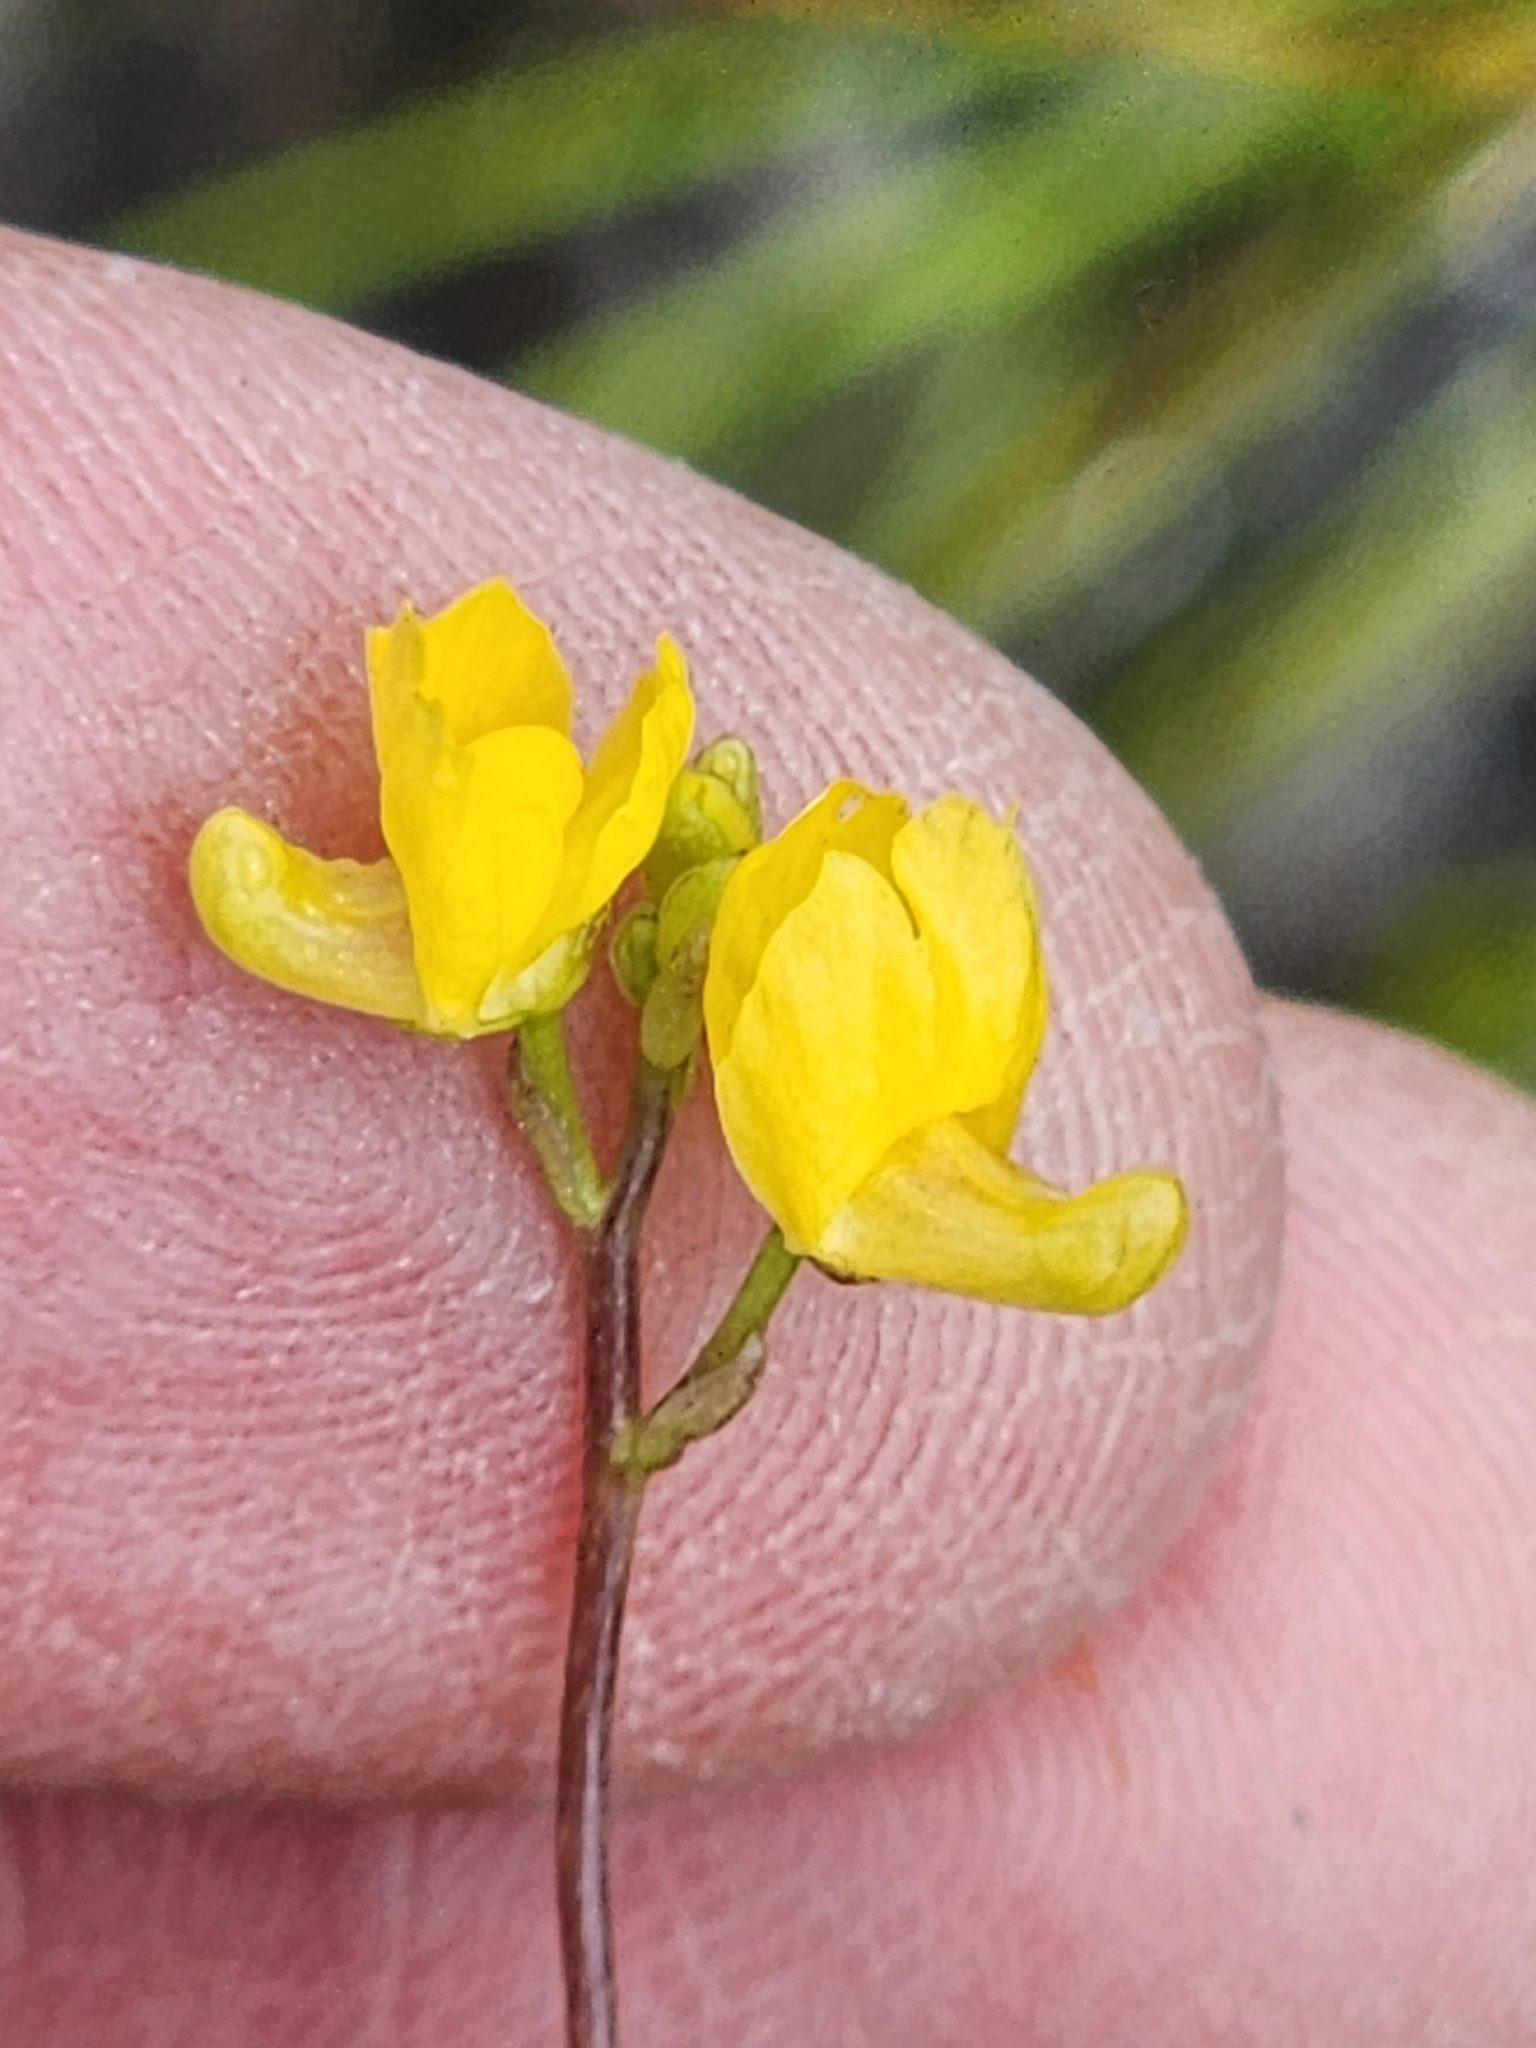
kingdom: Plantae
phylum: Tracheophyta
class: Magnoliopsida
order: Lamiales
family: Lentibulariaceae
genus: Utricularia
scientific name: Utricularia geminiscapa
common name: Hidden-fruit bladderwort
